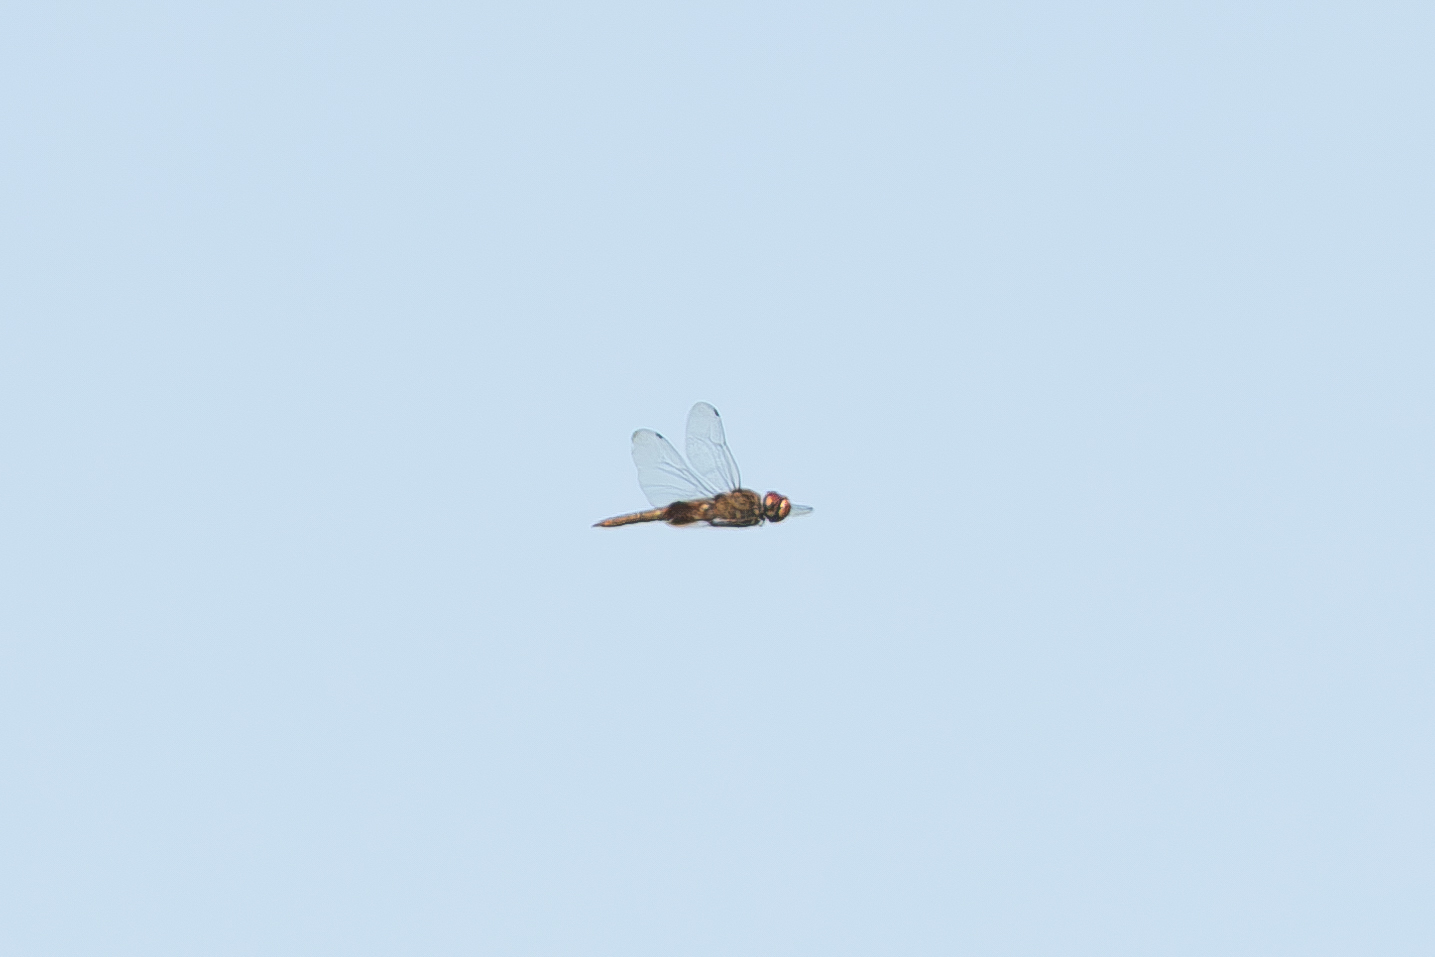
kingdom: Animalia
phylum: Arthropoda
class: Insecta
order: Odonata
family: Libellulidae
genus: Pantala
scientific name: Pantala hymenaea
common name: Spot-winged glider
